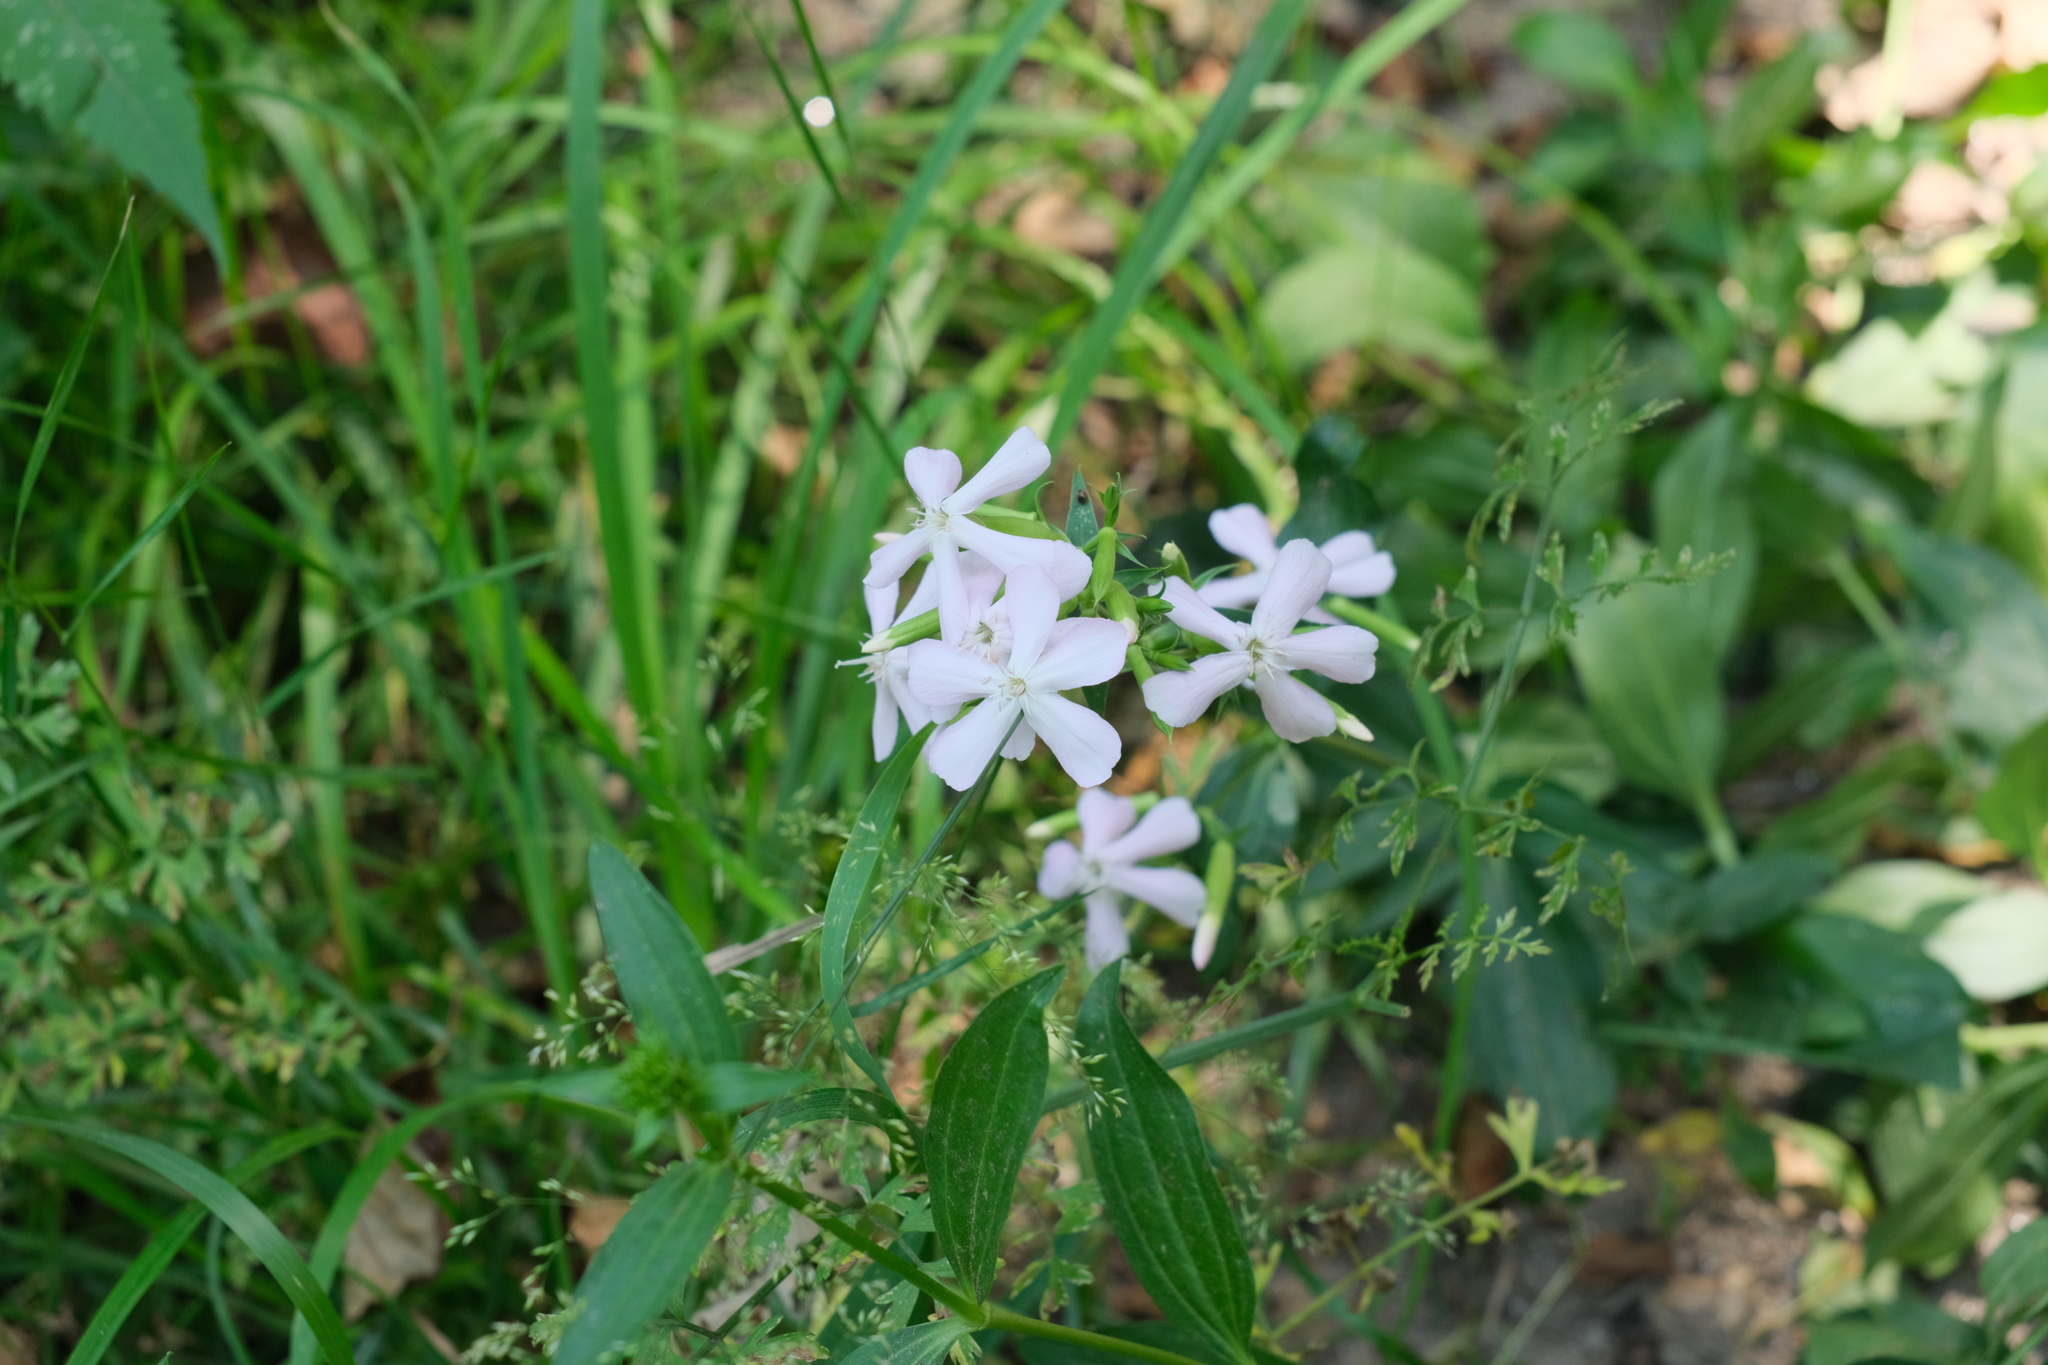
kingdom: Plantae
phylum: Tracheophyta
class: Magnoliopsida
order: Caryophyllales
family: Caryophyllaceae
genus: Saponaria
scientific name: Saponaria officinalis
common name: Soapwort
